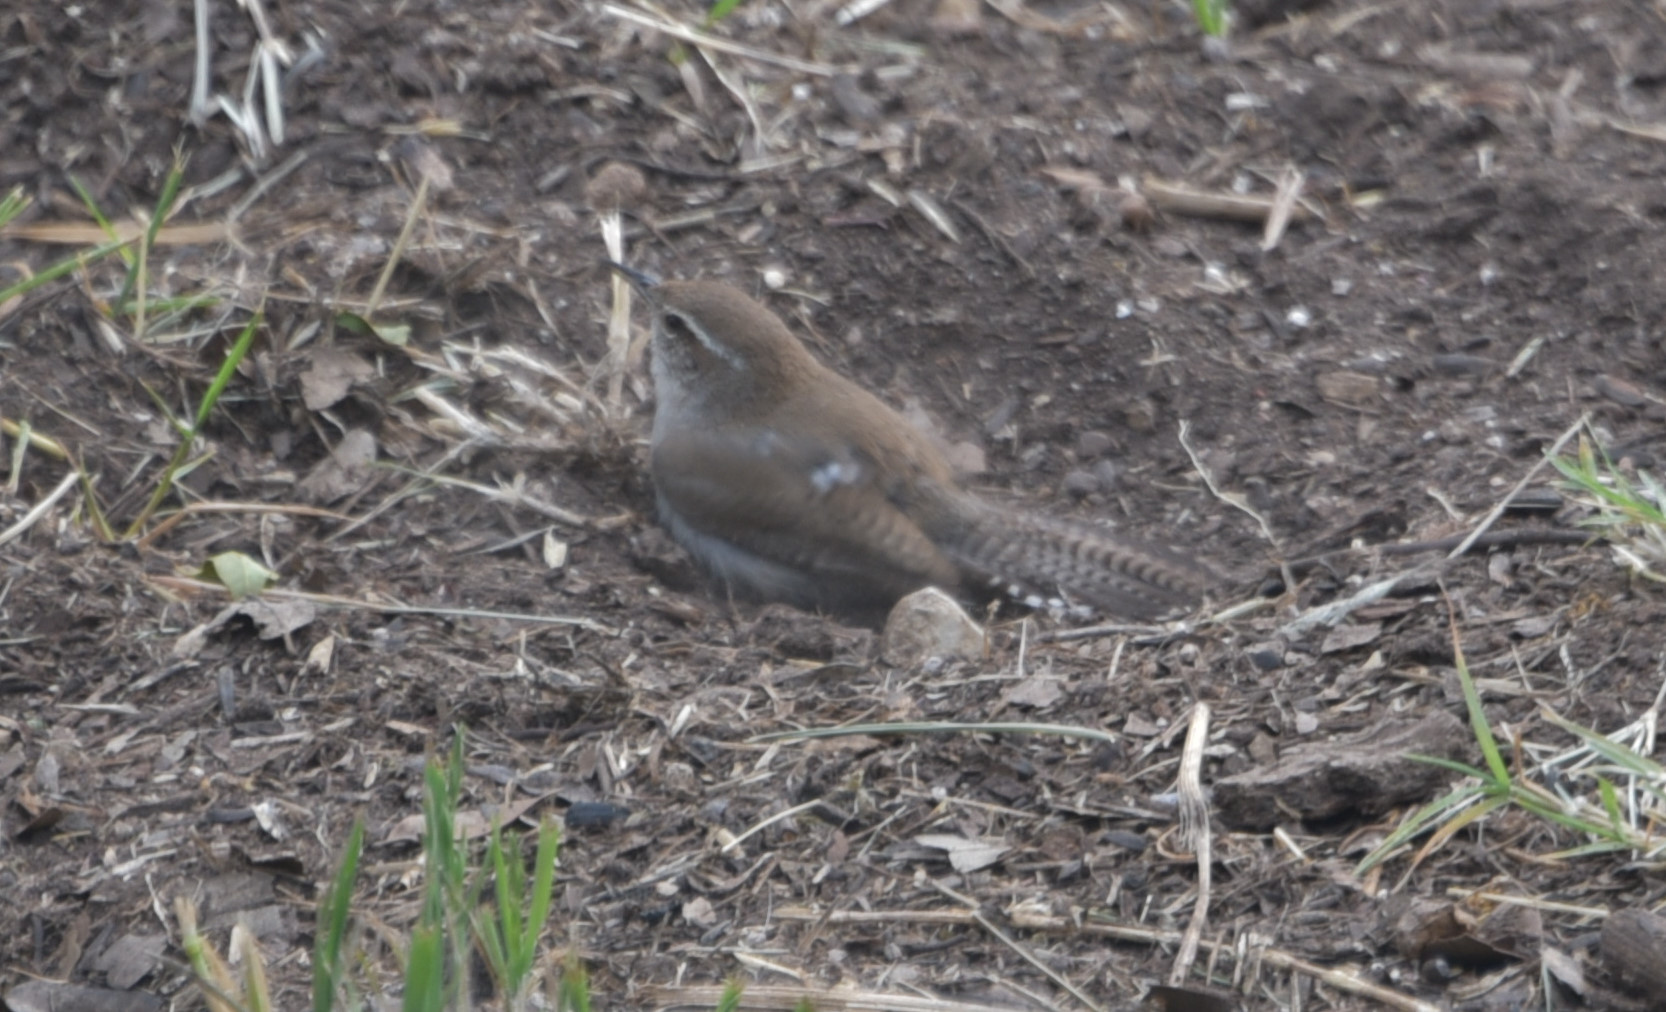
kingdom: Animalia
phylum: Chordata
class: Aves
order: Passeriformes
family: Troglodytidae
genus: Thryomanes
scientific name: Thryomanes bewickii
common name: Bewick's wren
